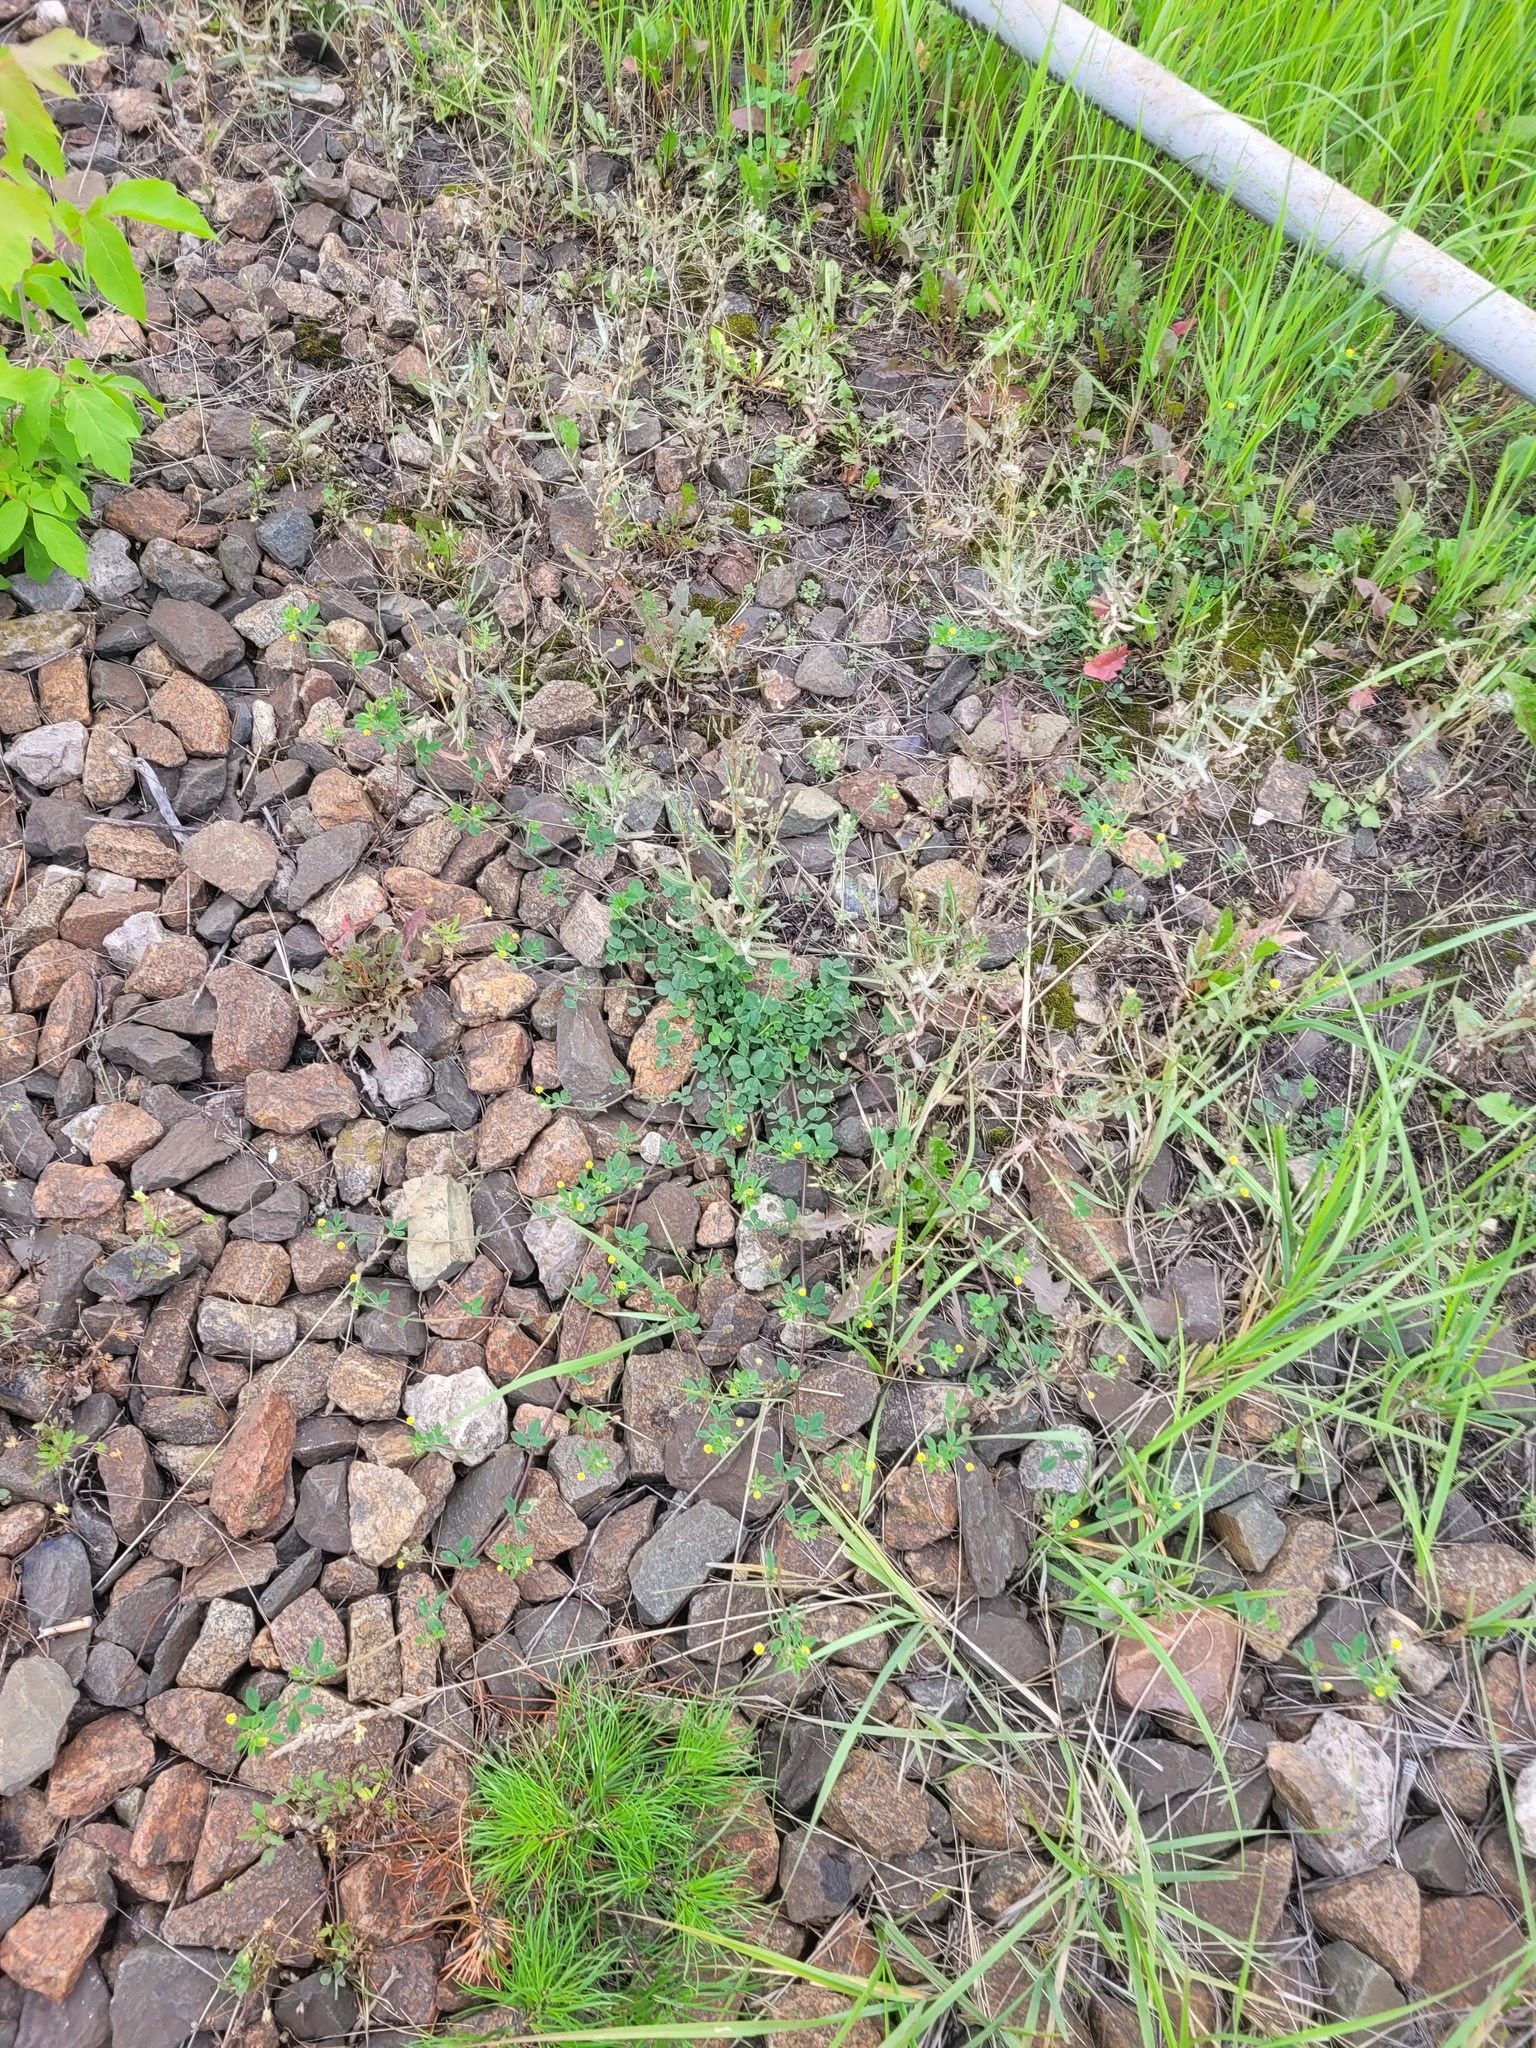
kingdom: Plantae
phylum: Tracheophyta
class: Magnoliopsida
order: Fabales
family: Fabaceae
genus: Medicago
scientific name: Medicago lupulina
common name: Black medick
